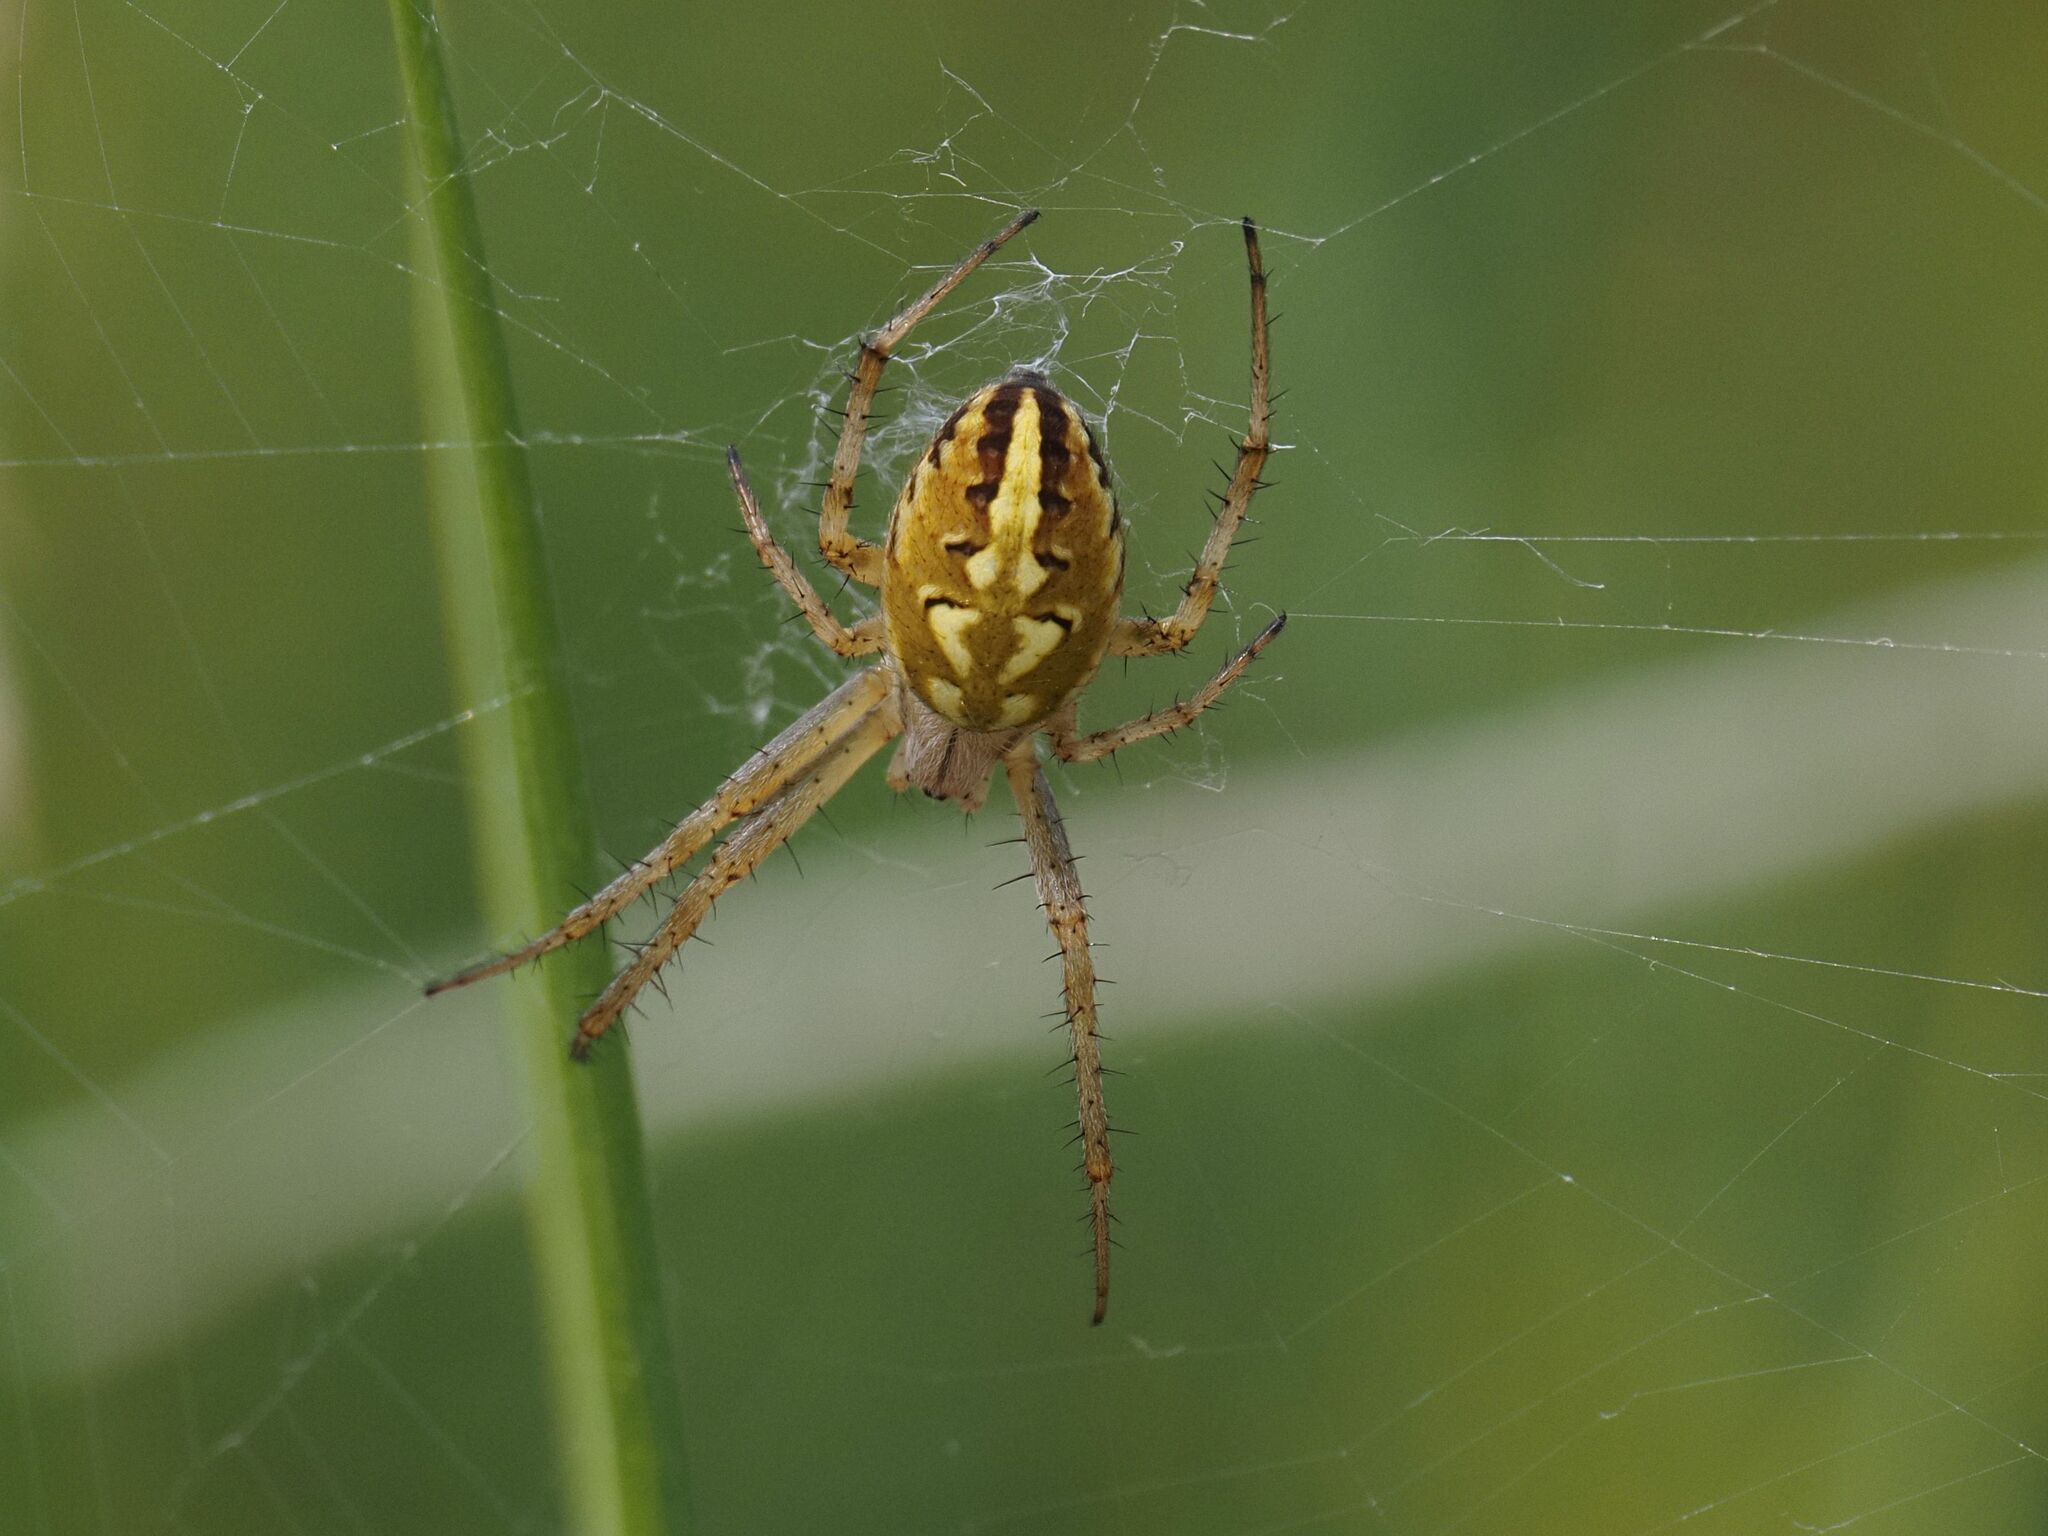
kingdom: Animalia
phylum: Arthropoda
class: Arachnida
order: Araneae
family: Araneidae
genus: Neoscona
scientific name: Neoscona adianta
